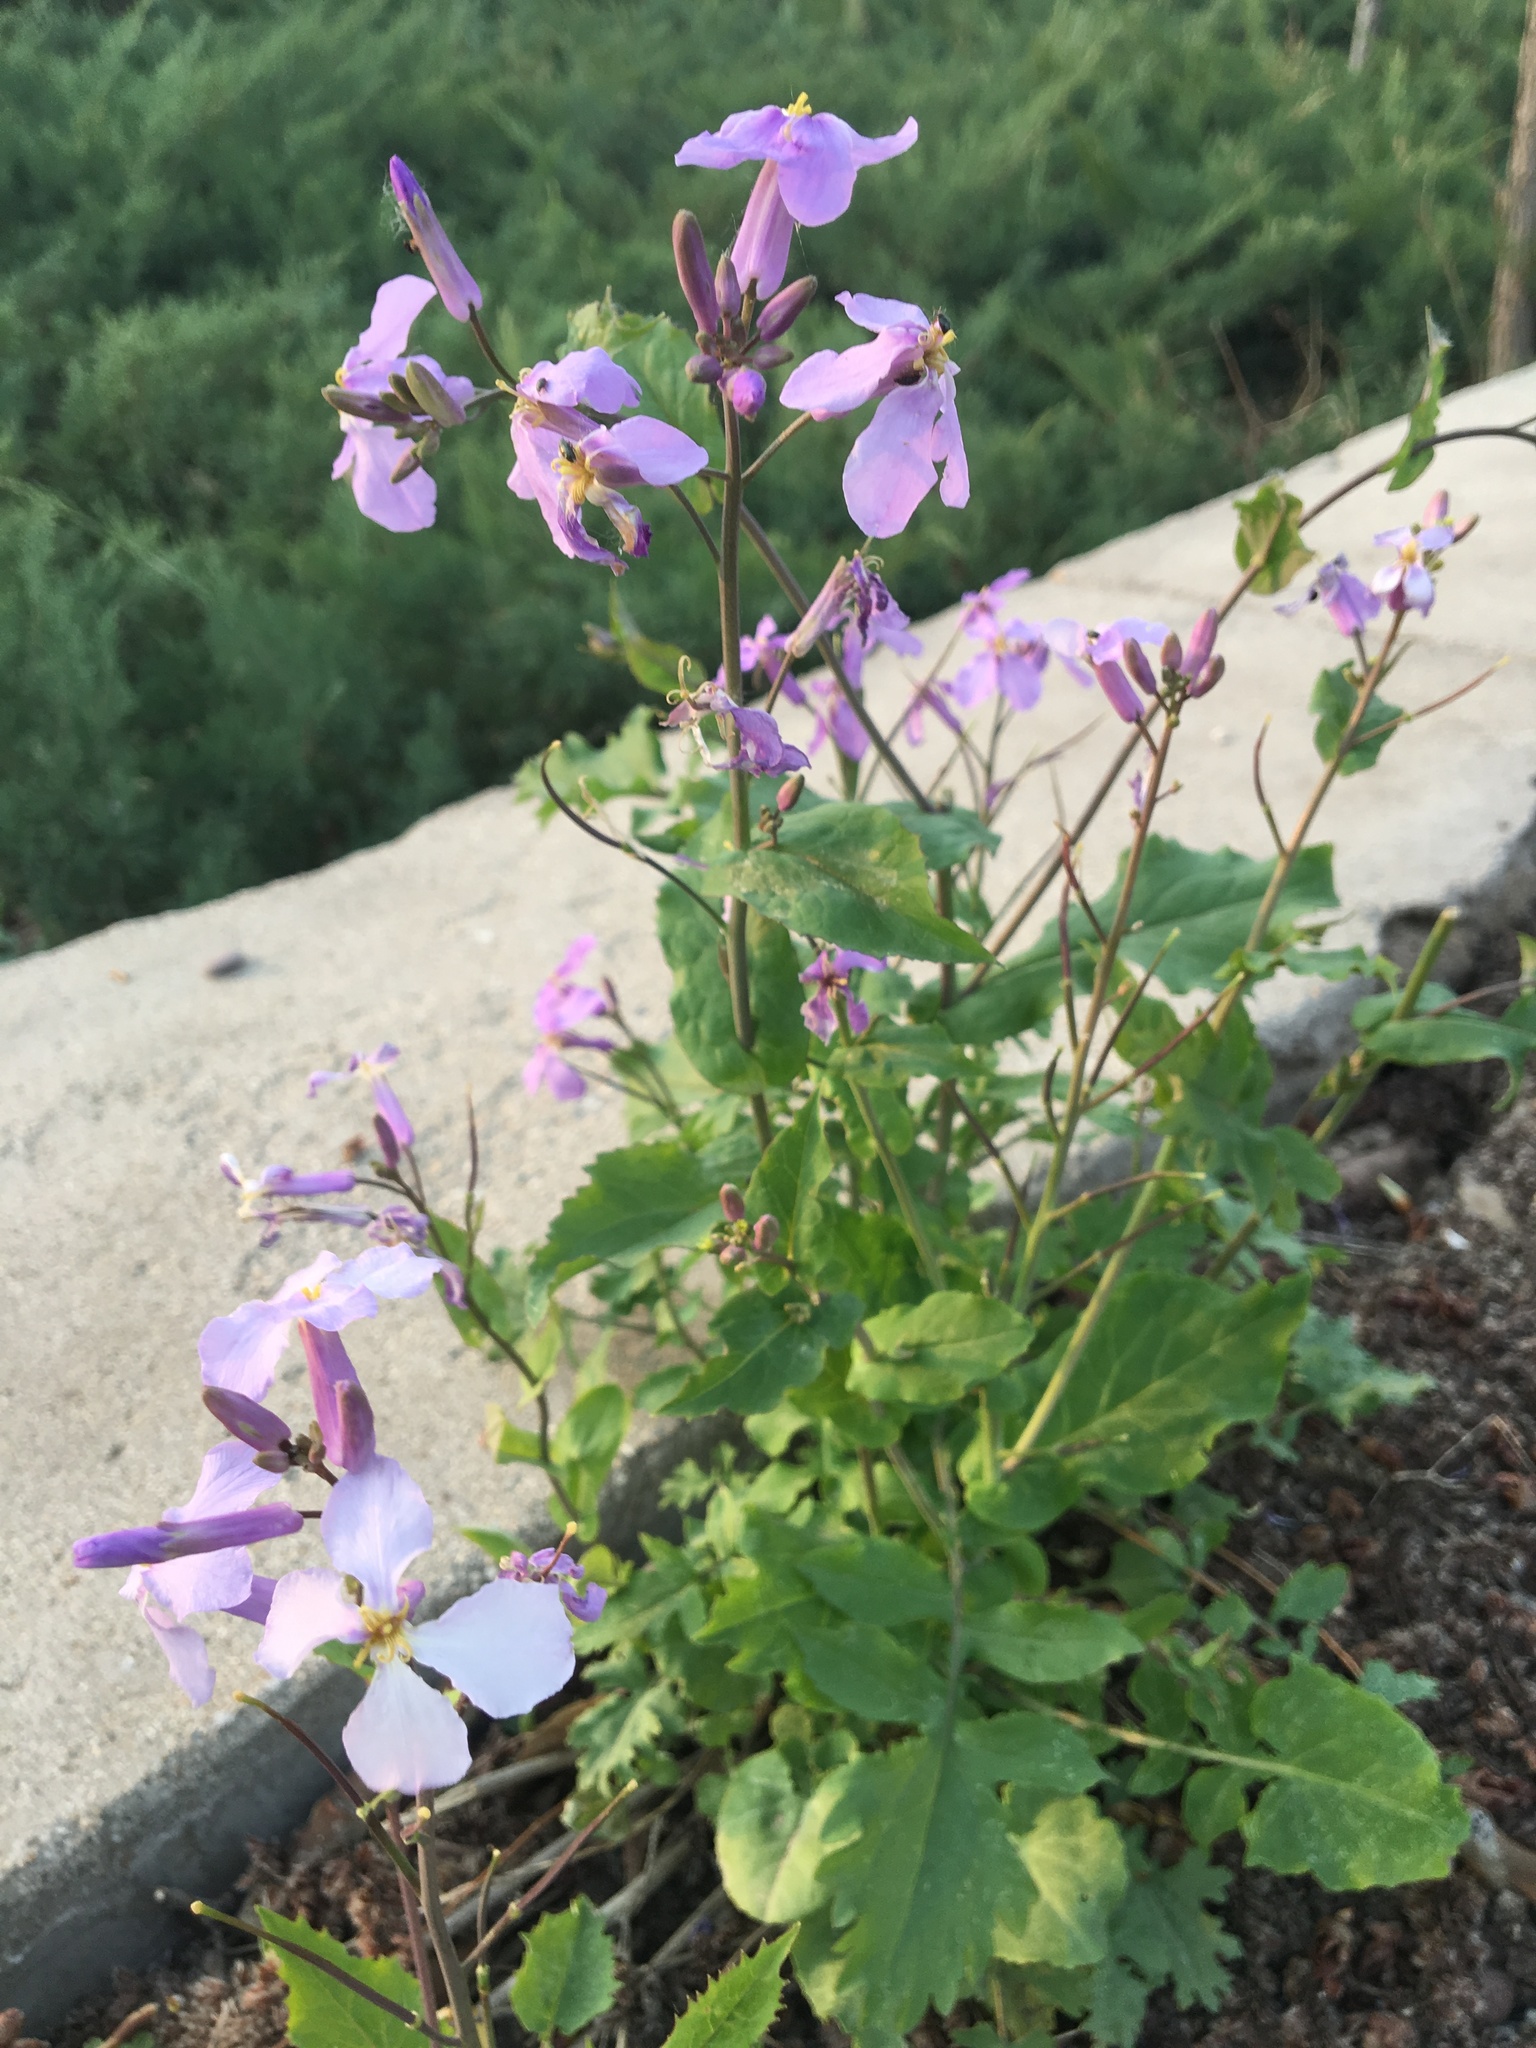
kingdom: Plantae
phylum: Tracheophyta
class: Magnoliopsida
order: Brassicales
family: Brassicaceae
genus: Orychophragmus
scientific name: Orychophragmus violaceus
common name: Mustard
